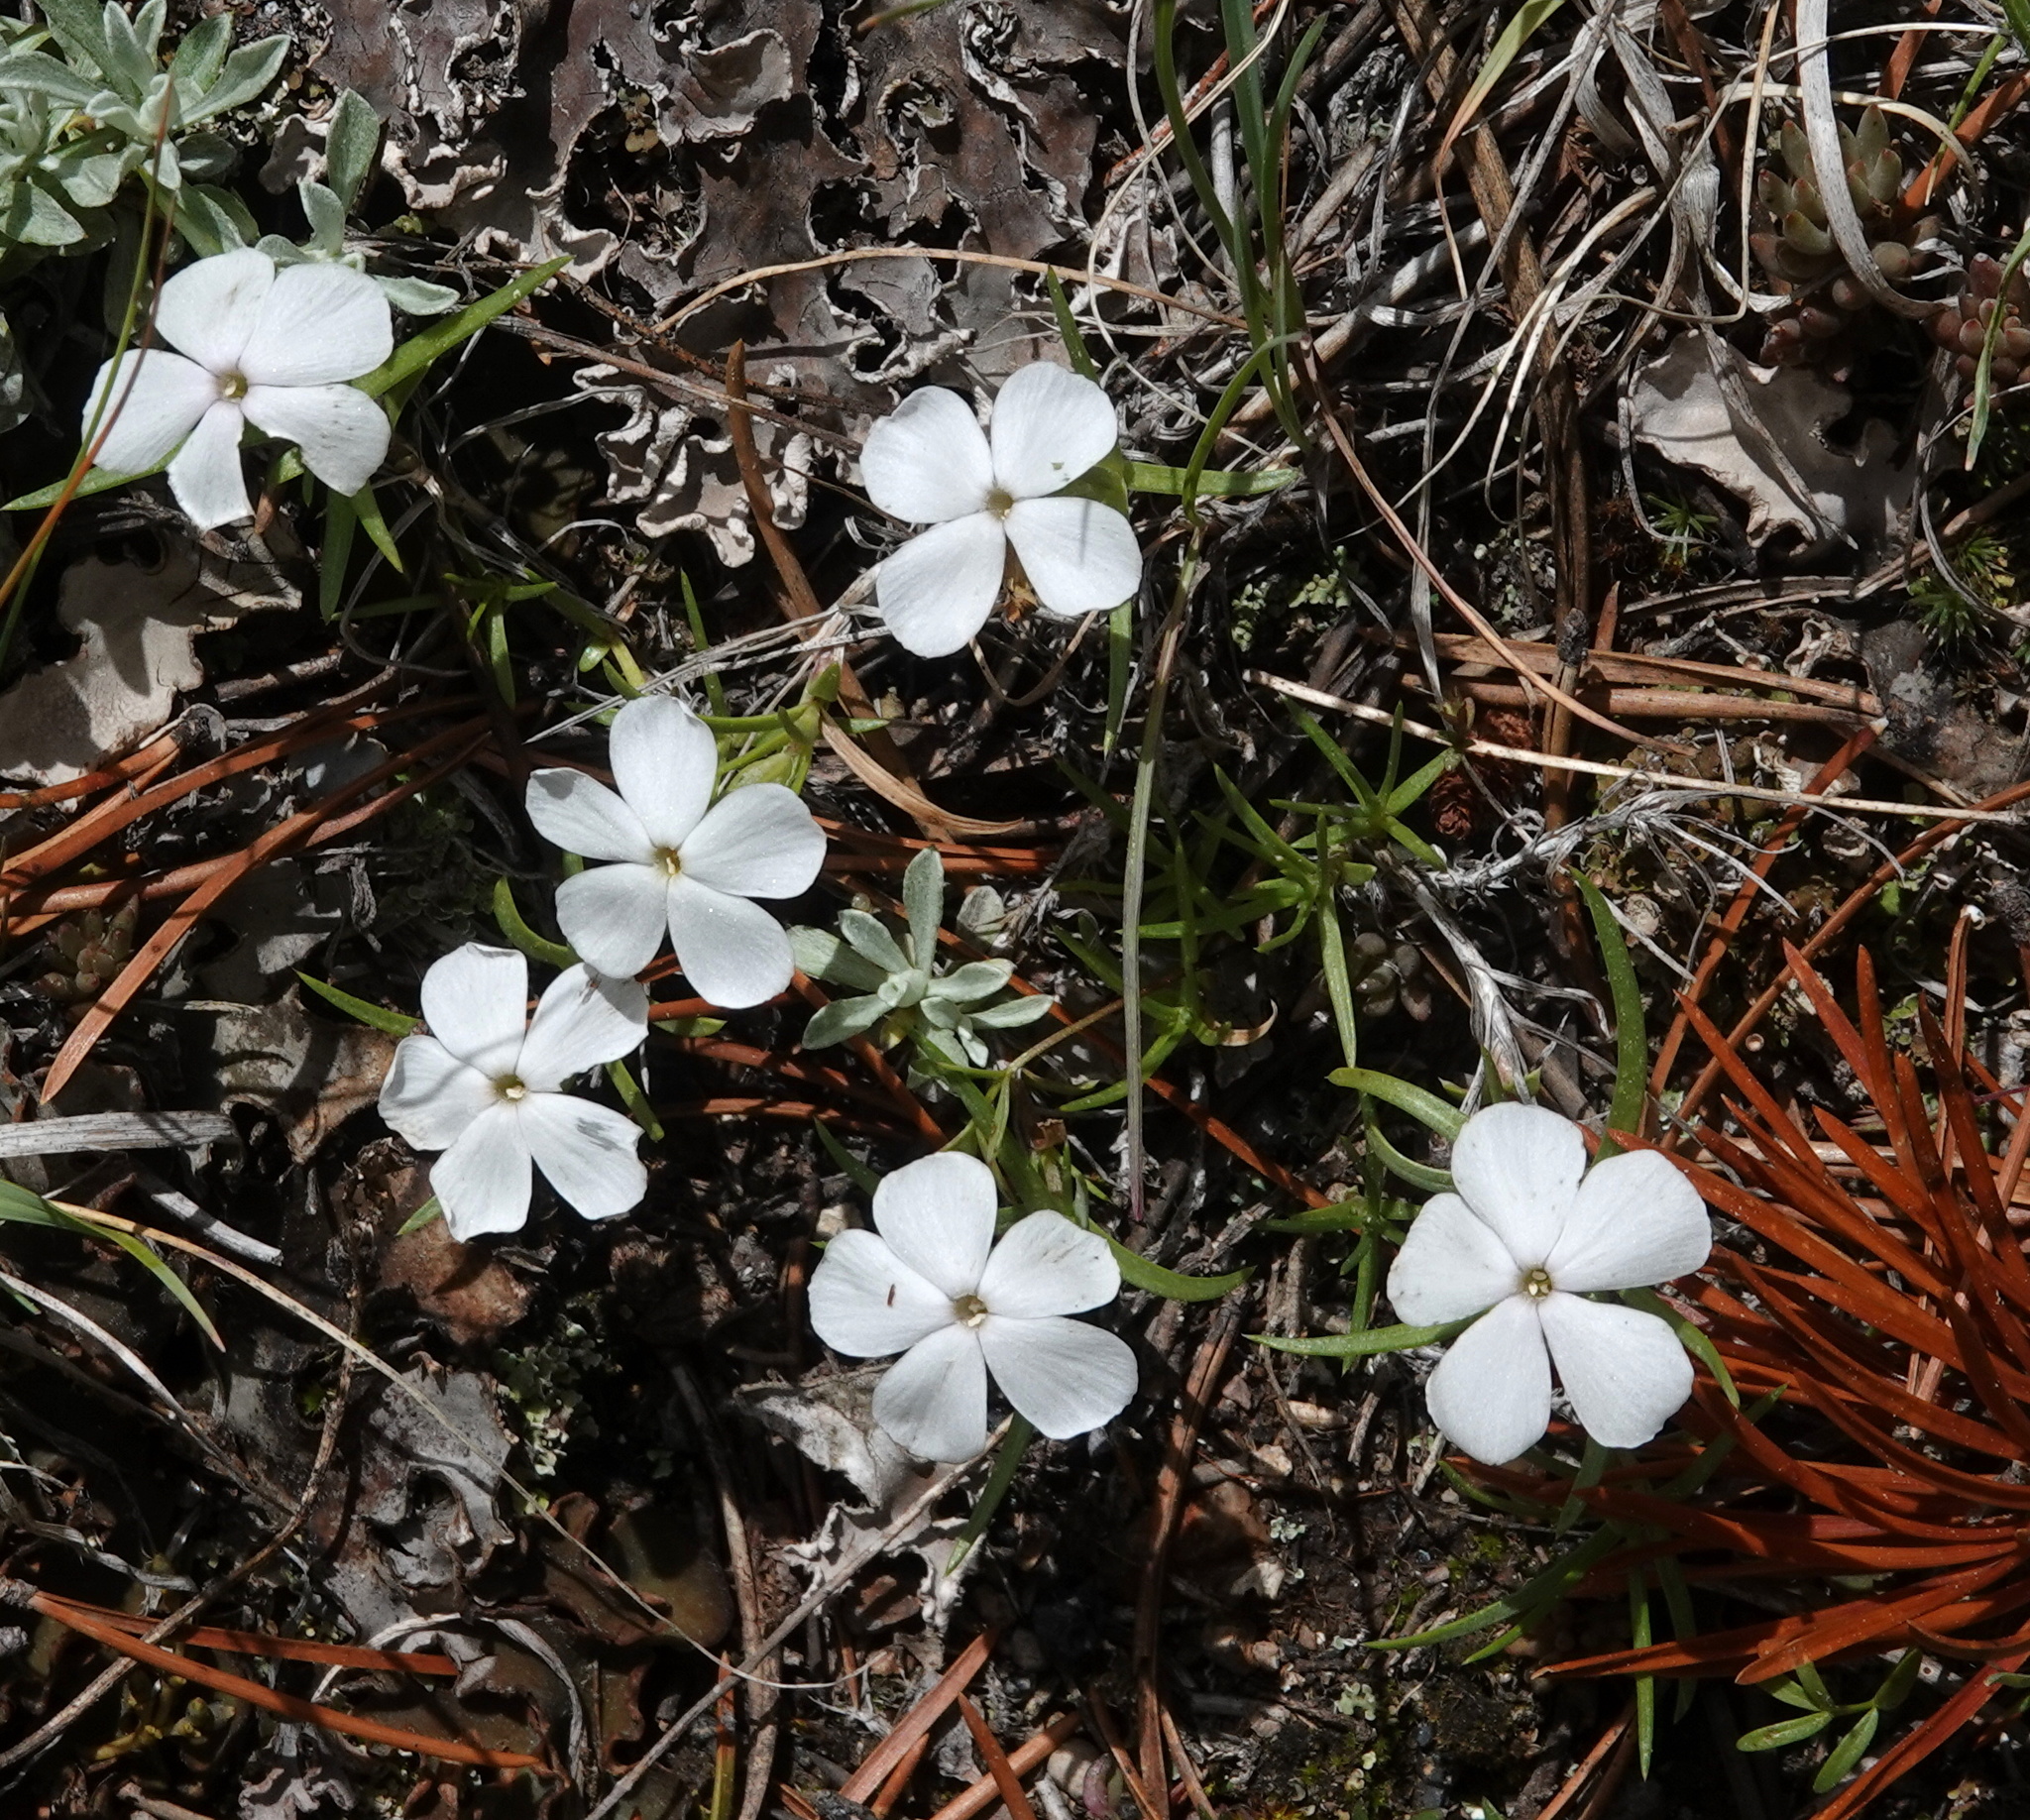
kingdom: Plantae
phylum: Tracheophyta
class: Magnoliopsida
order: Ericales
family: Polemoniaceae
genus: Phlox
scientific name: Phlox multiflora
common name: Rocky mountain phlox
